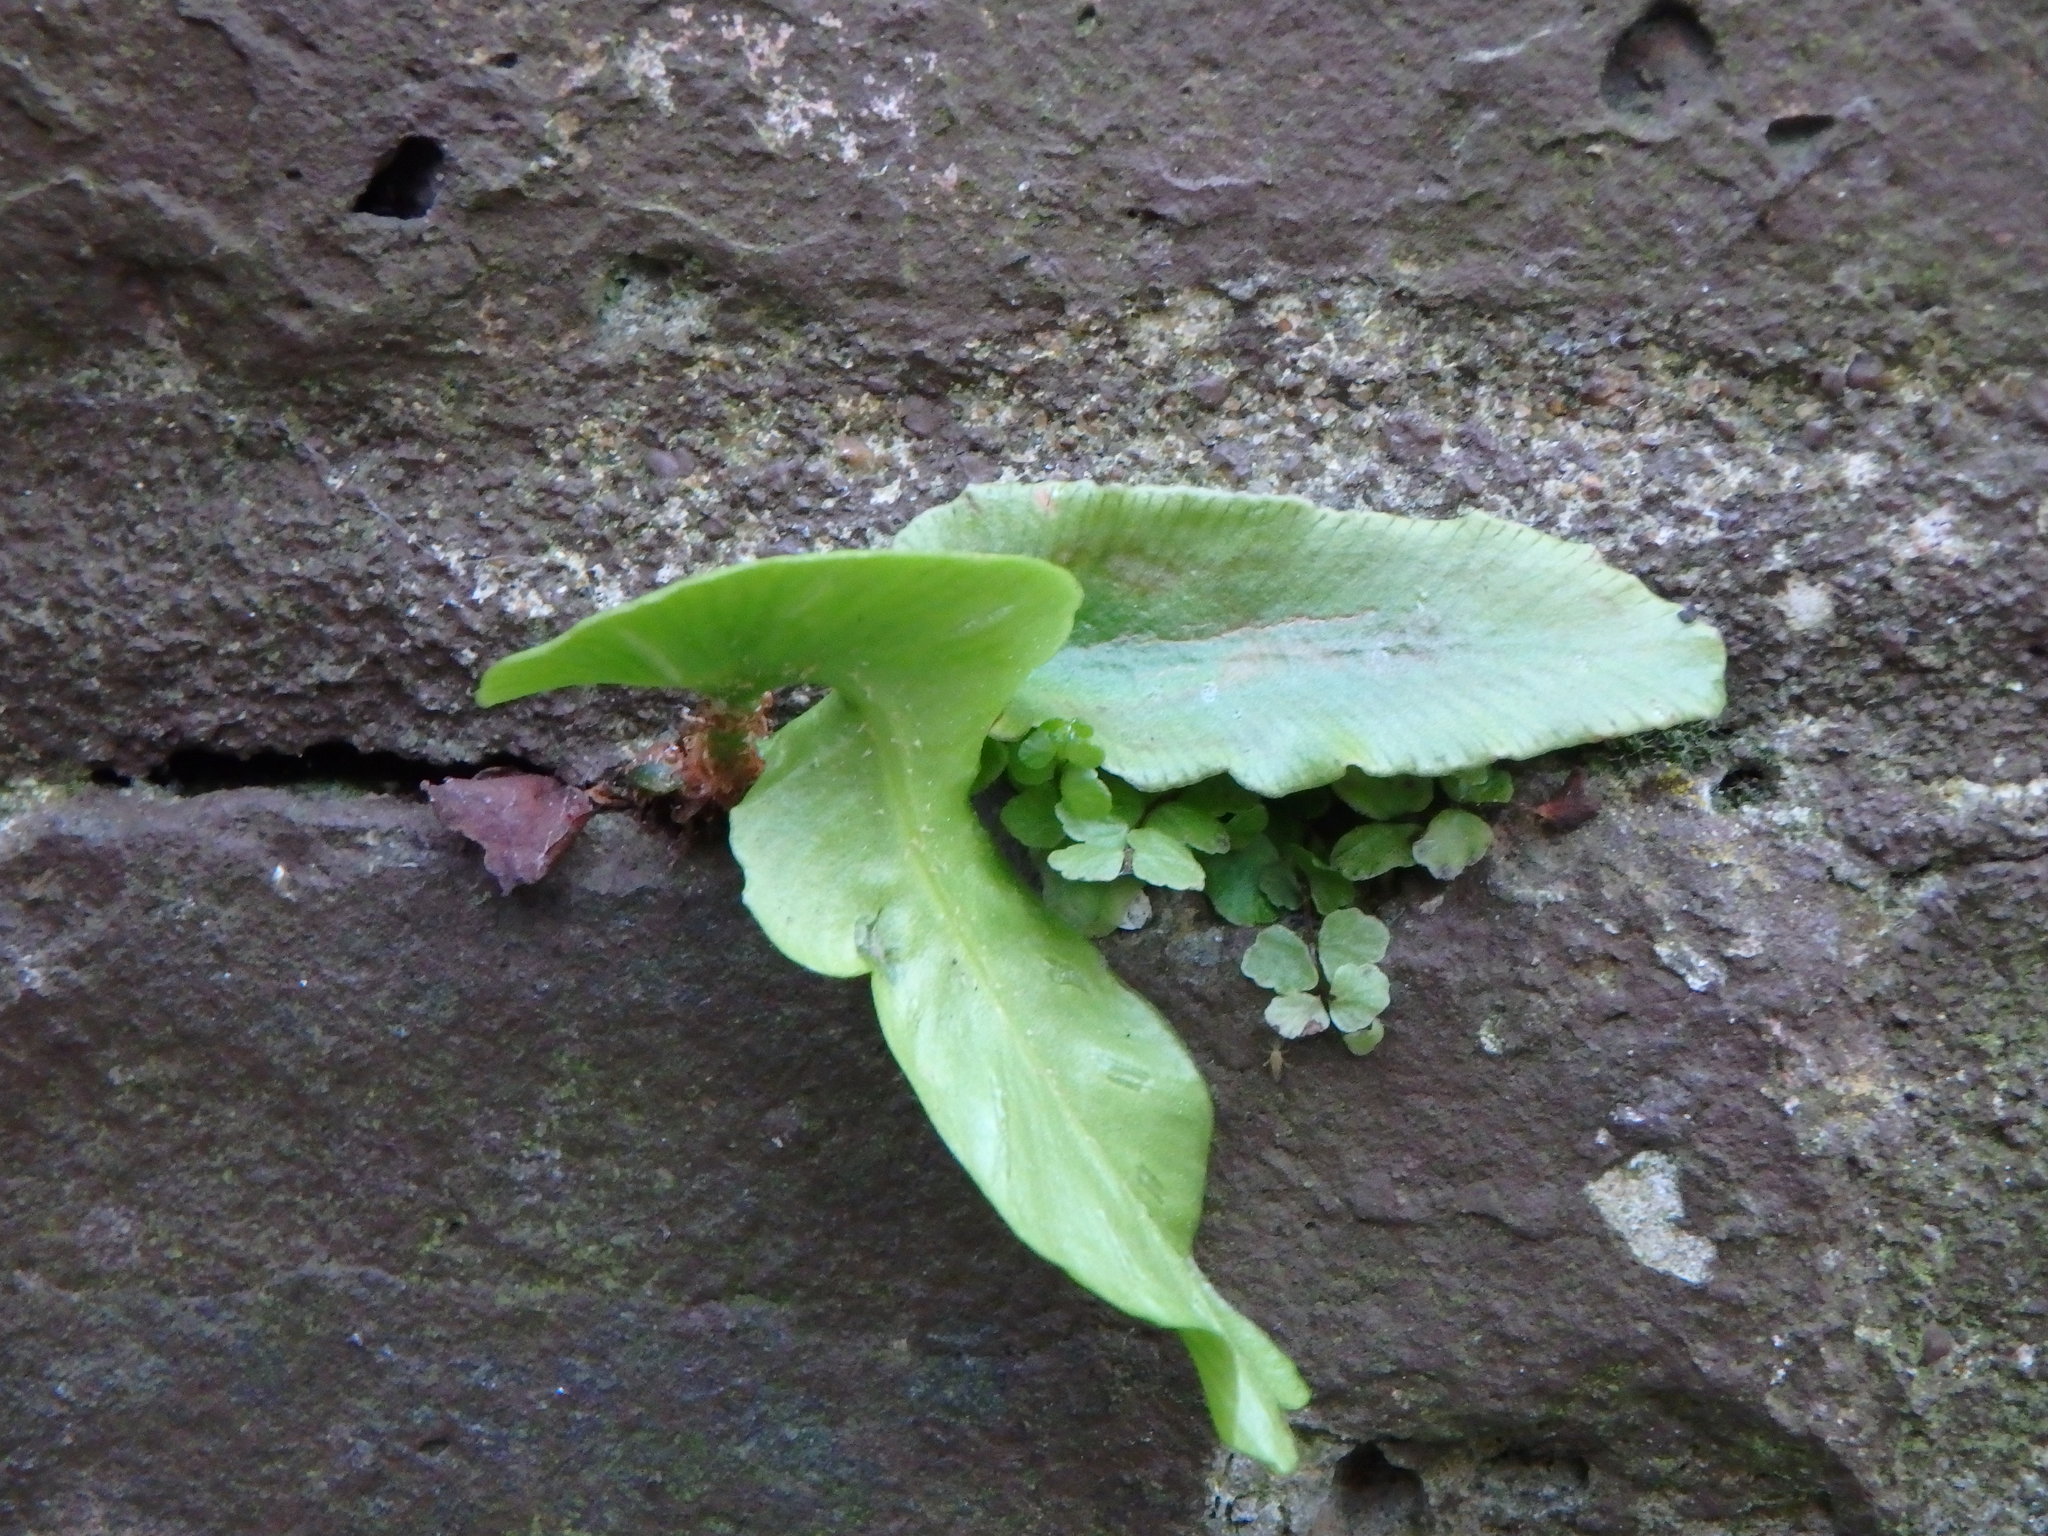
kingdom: Plantae
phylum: Tracheophyta
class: Polypodiopsida
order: Polypodiales
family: Aspleniaceae
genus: Asplenium
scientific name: Asplenium scolopendrium
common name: Hart's-tongue fern
